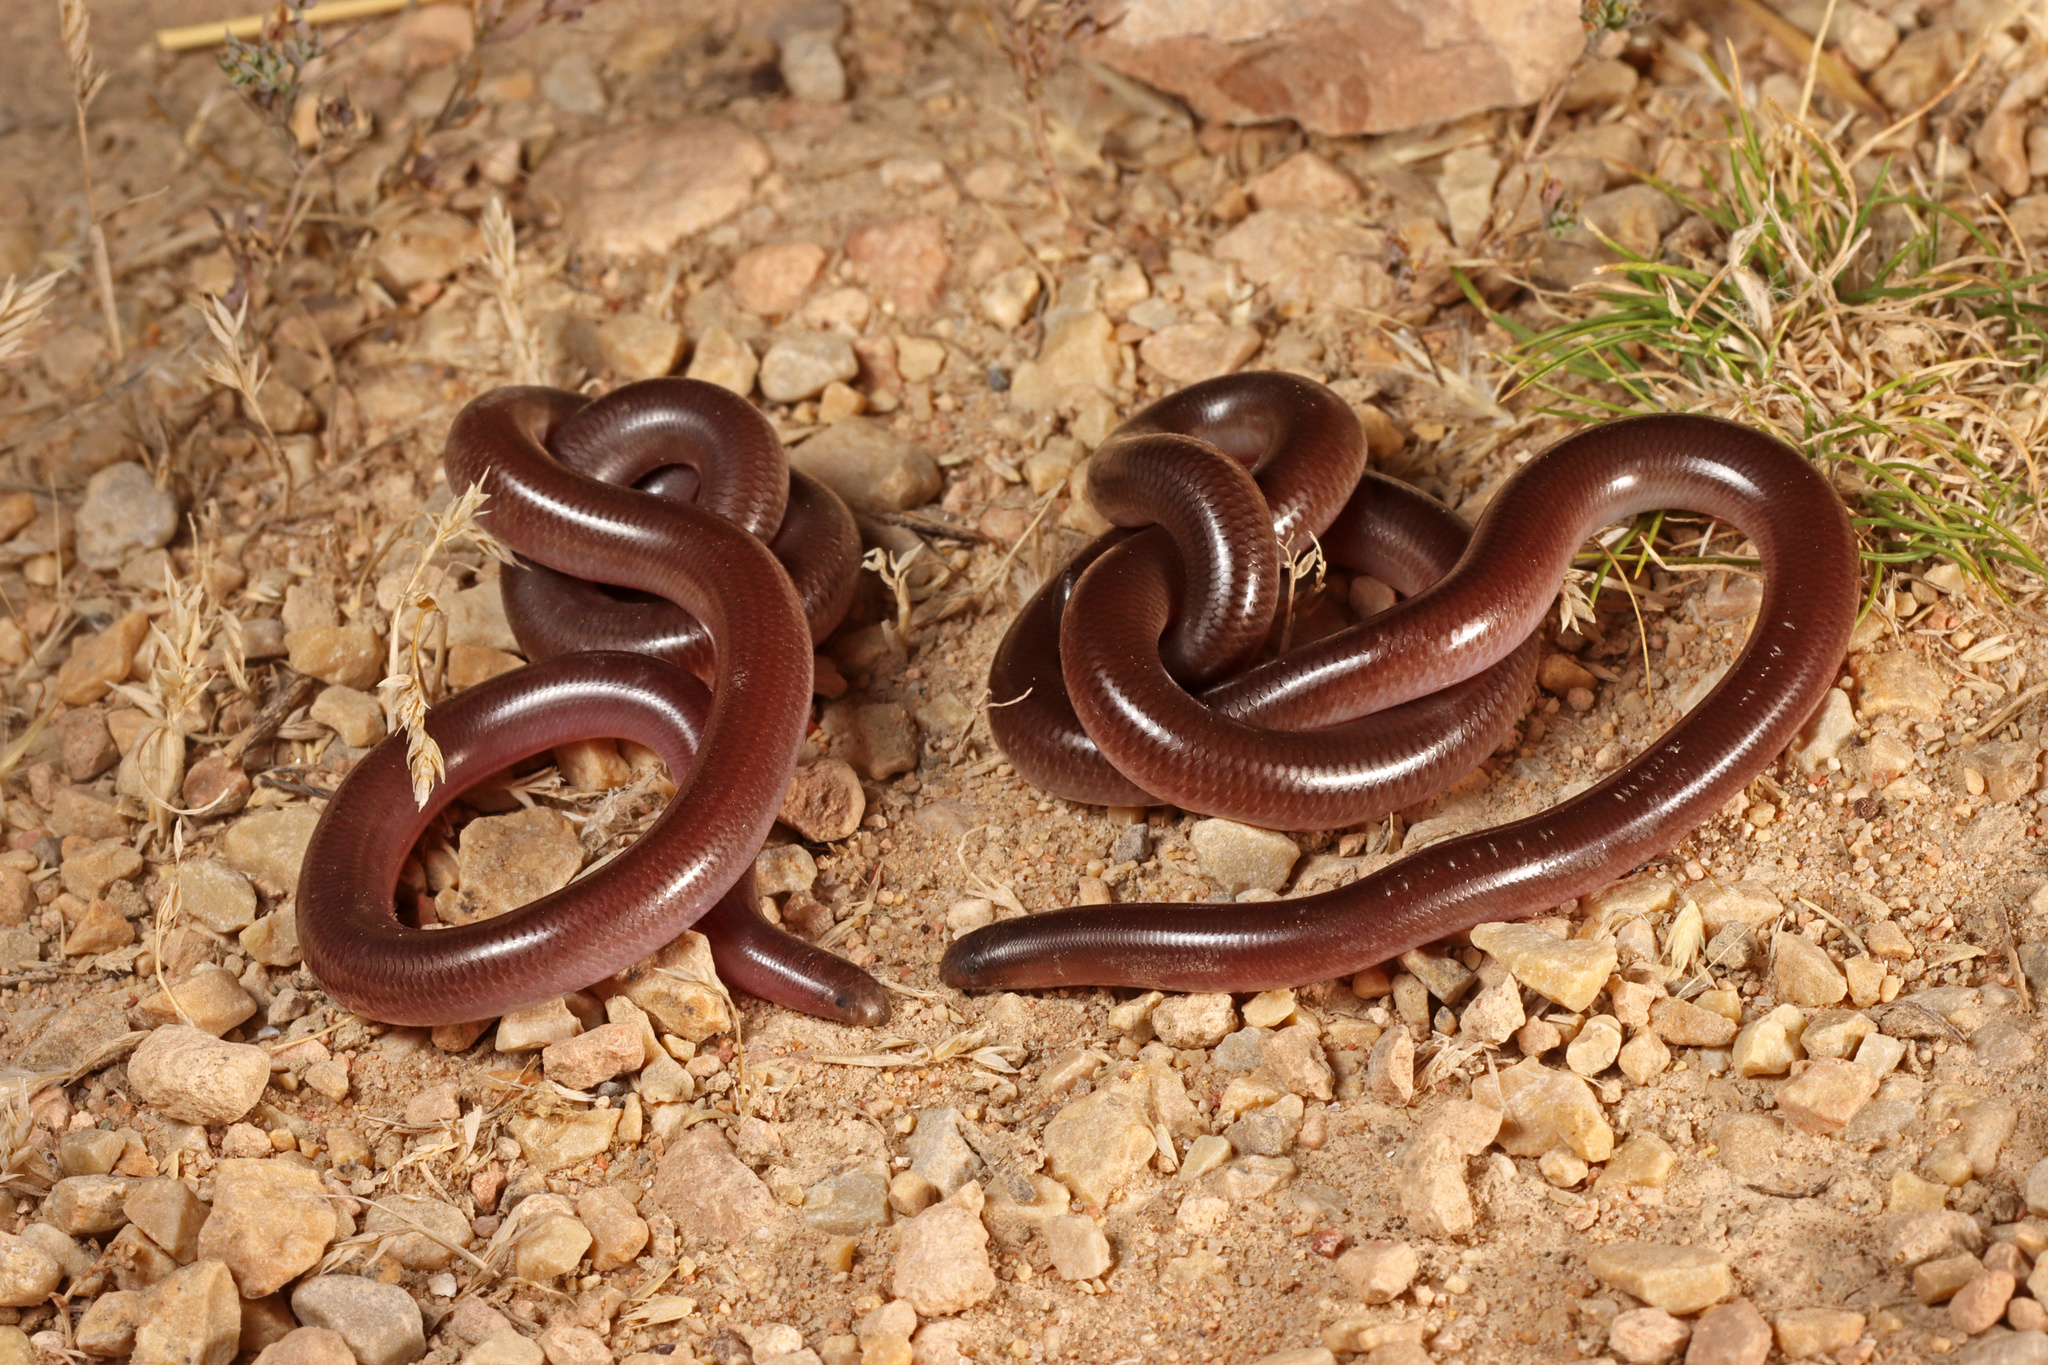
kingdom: Animalia
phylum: Chordata
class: Squamata
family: Typhlopidae
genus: Anilios
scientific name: Anilios bituberculatus
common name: Prong-snouted blind snake
